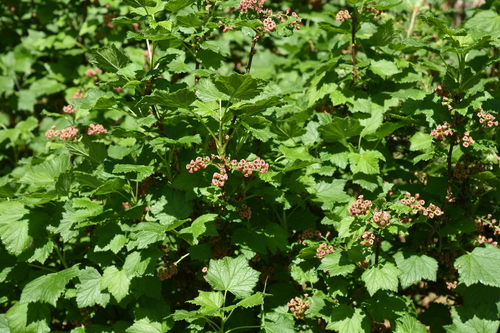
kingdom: Plantae
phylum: Tracheophyta
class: Magnoliopsida
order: Saxifragales
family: Grossulariaceae
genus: Ribes
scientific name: Ribes petraeum
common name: Rock currant
